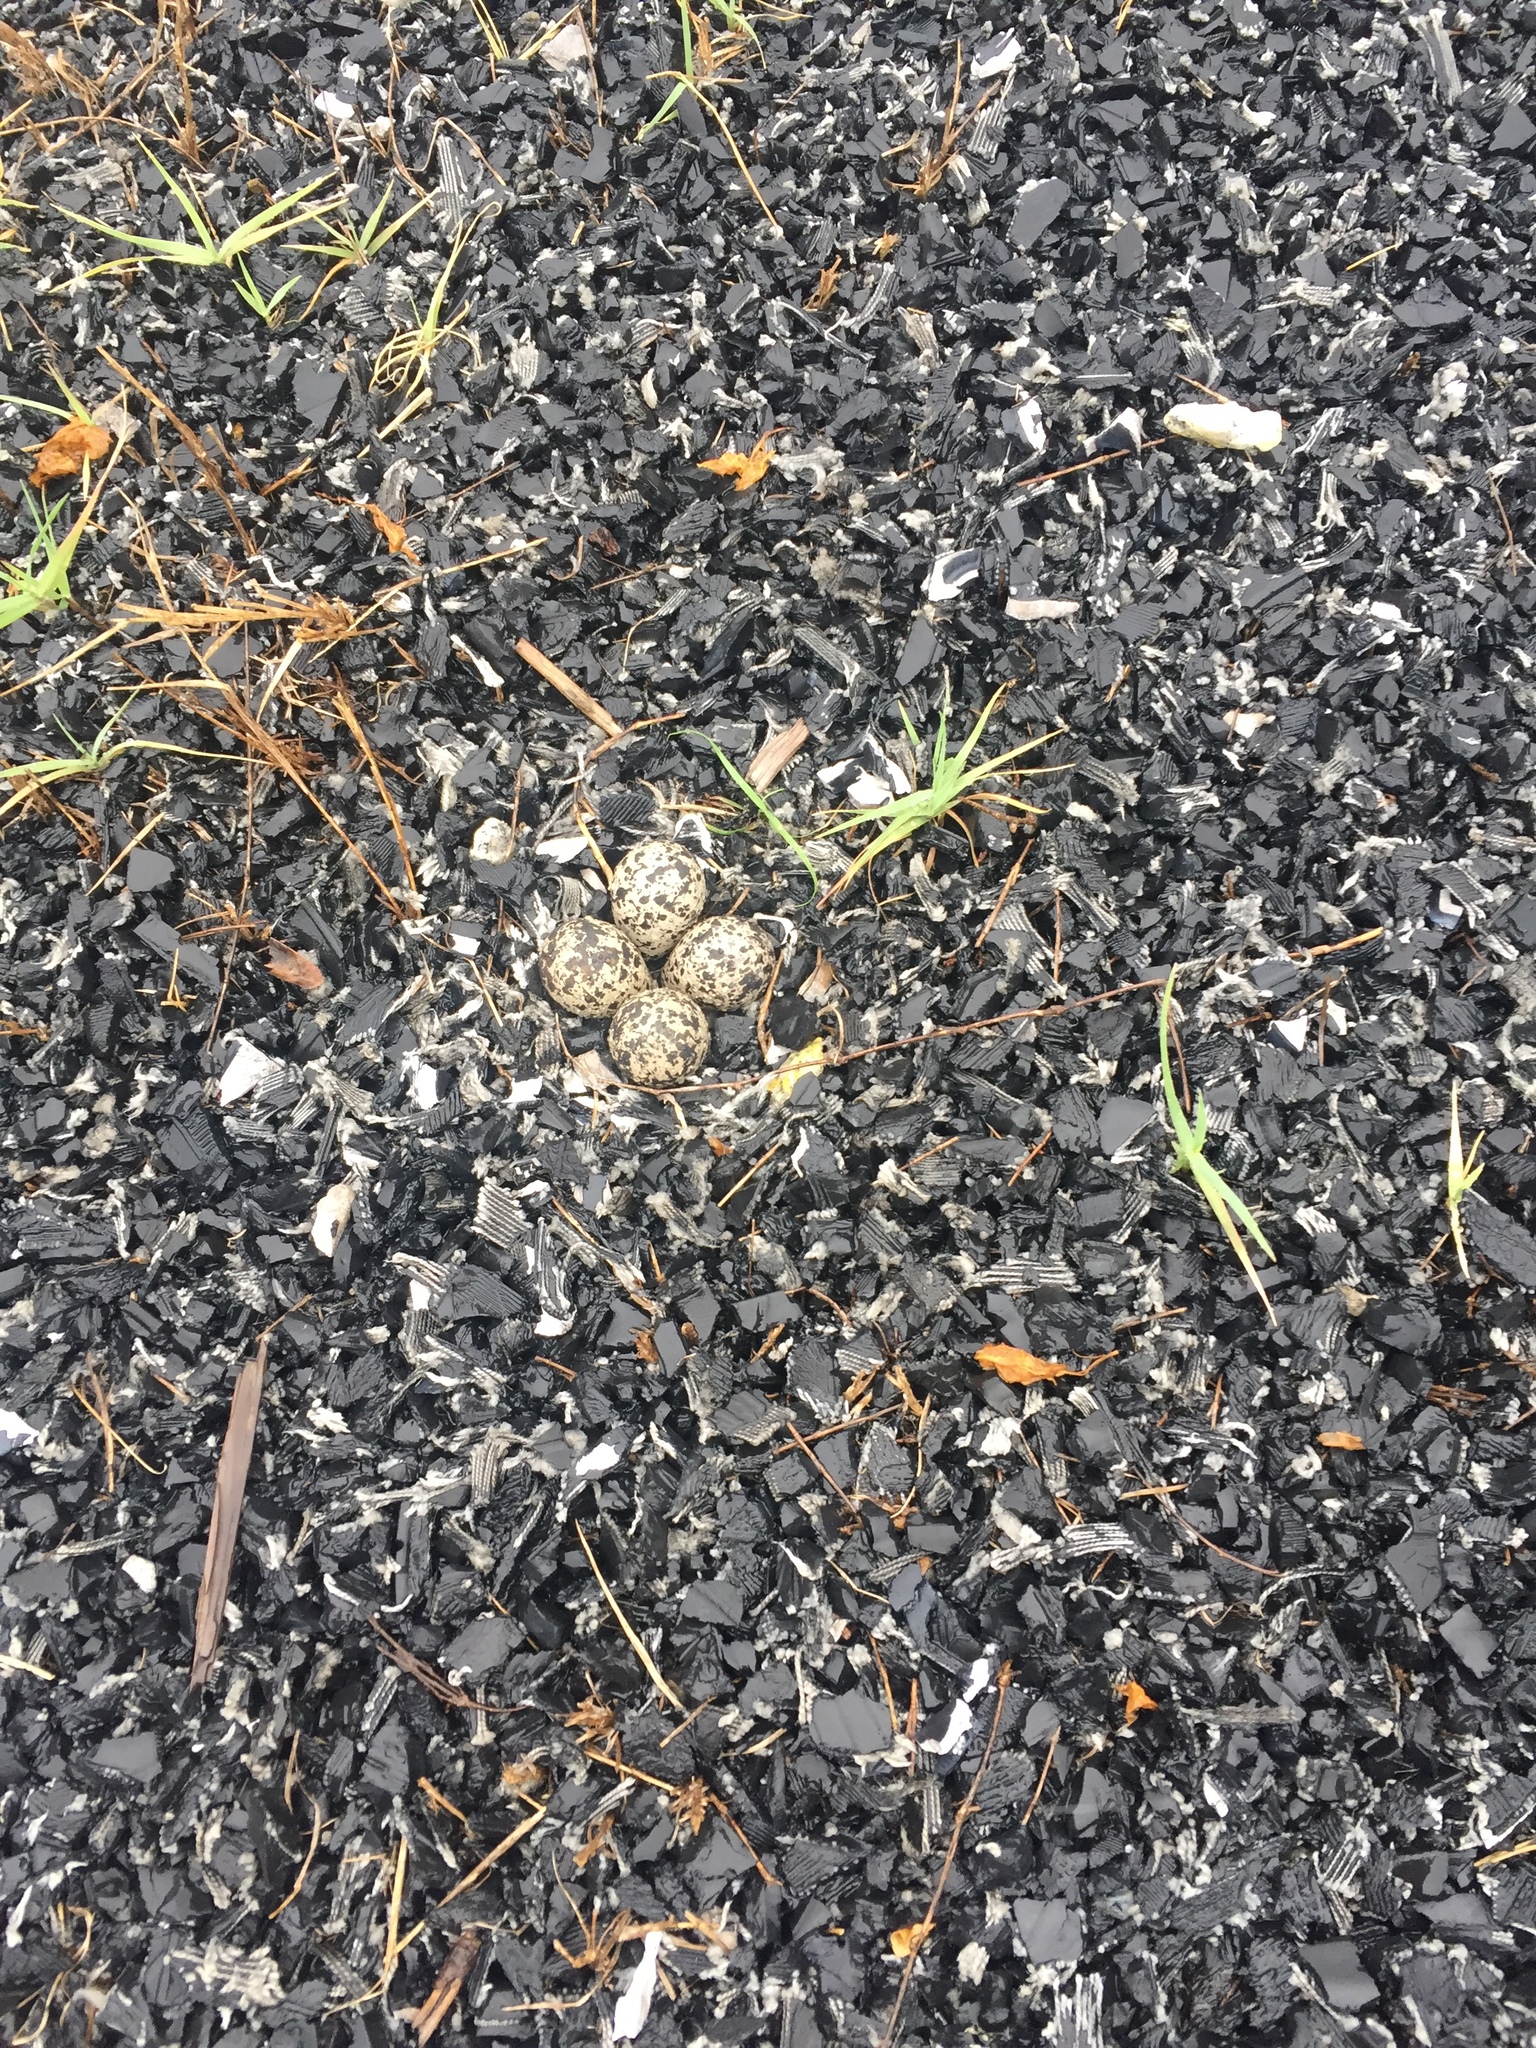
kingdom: Animalia
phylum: Chordata
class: Aves
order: Charadriiformes
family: Charadriidae
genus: Charadrius
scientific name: Charadrius vociferus
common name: Killdeer
